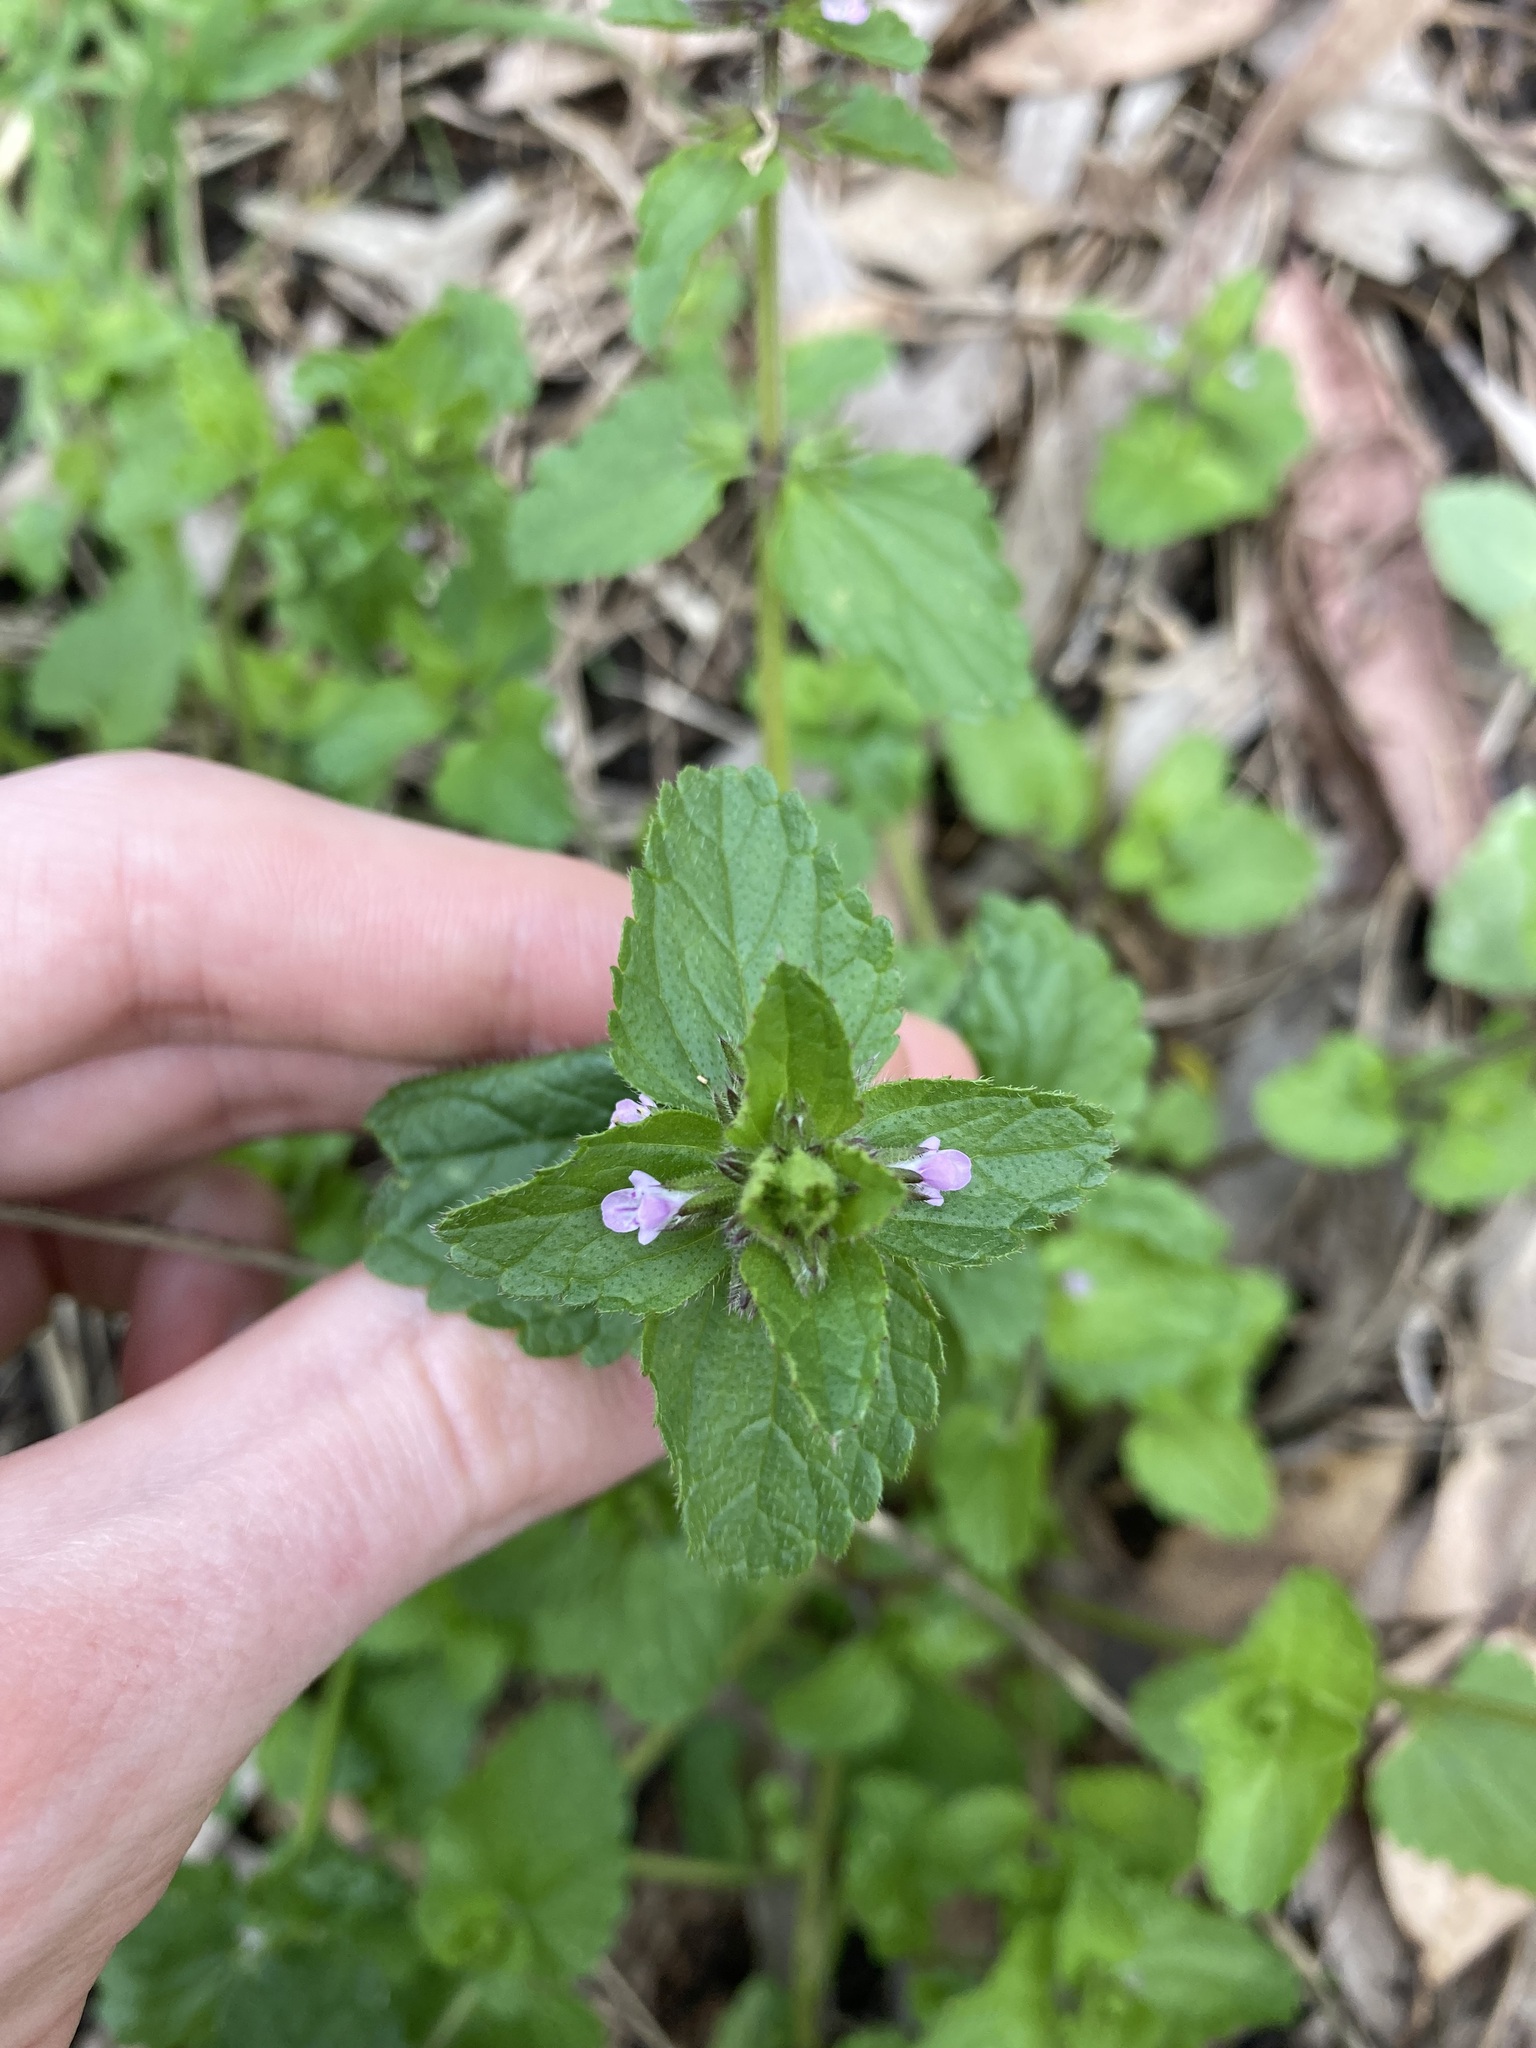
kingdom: Plantae
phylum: Tracheophyta
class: Magnoliopsida
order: Lamiales
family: Lamiaceae
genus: Stachys
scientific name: Stachys arvensis
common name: Field woundwort
